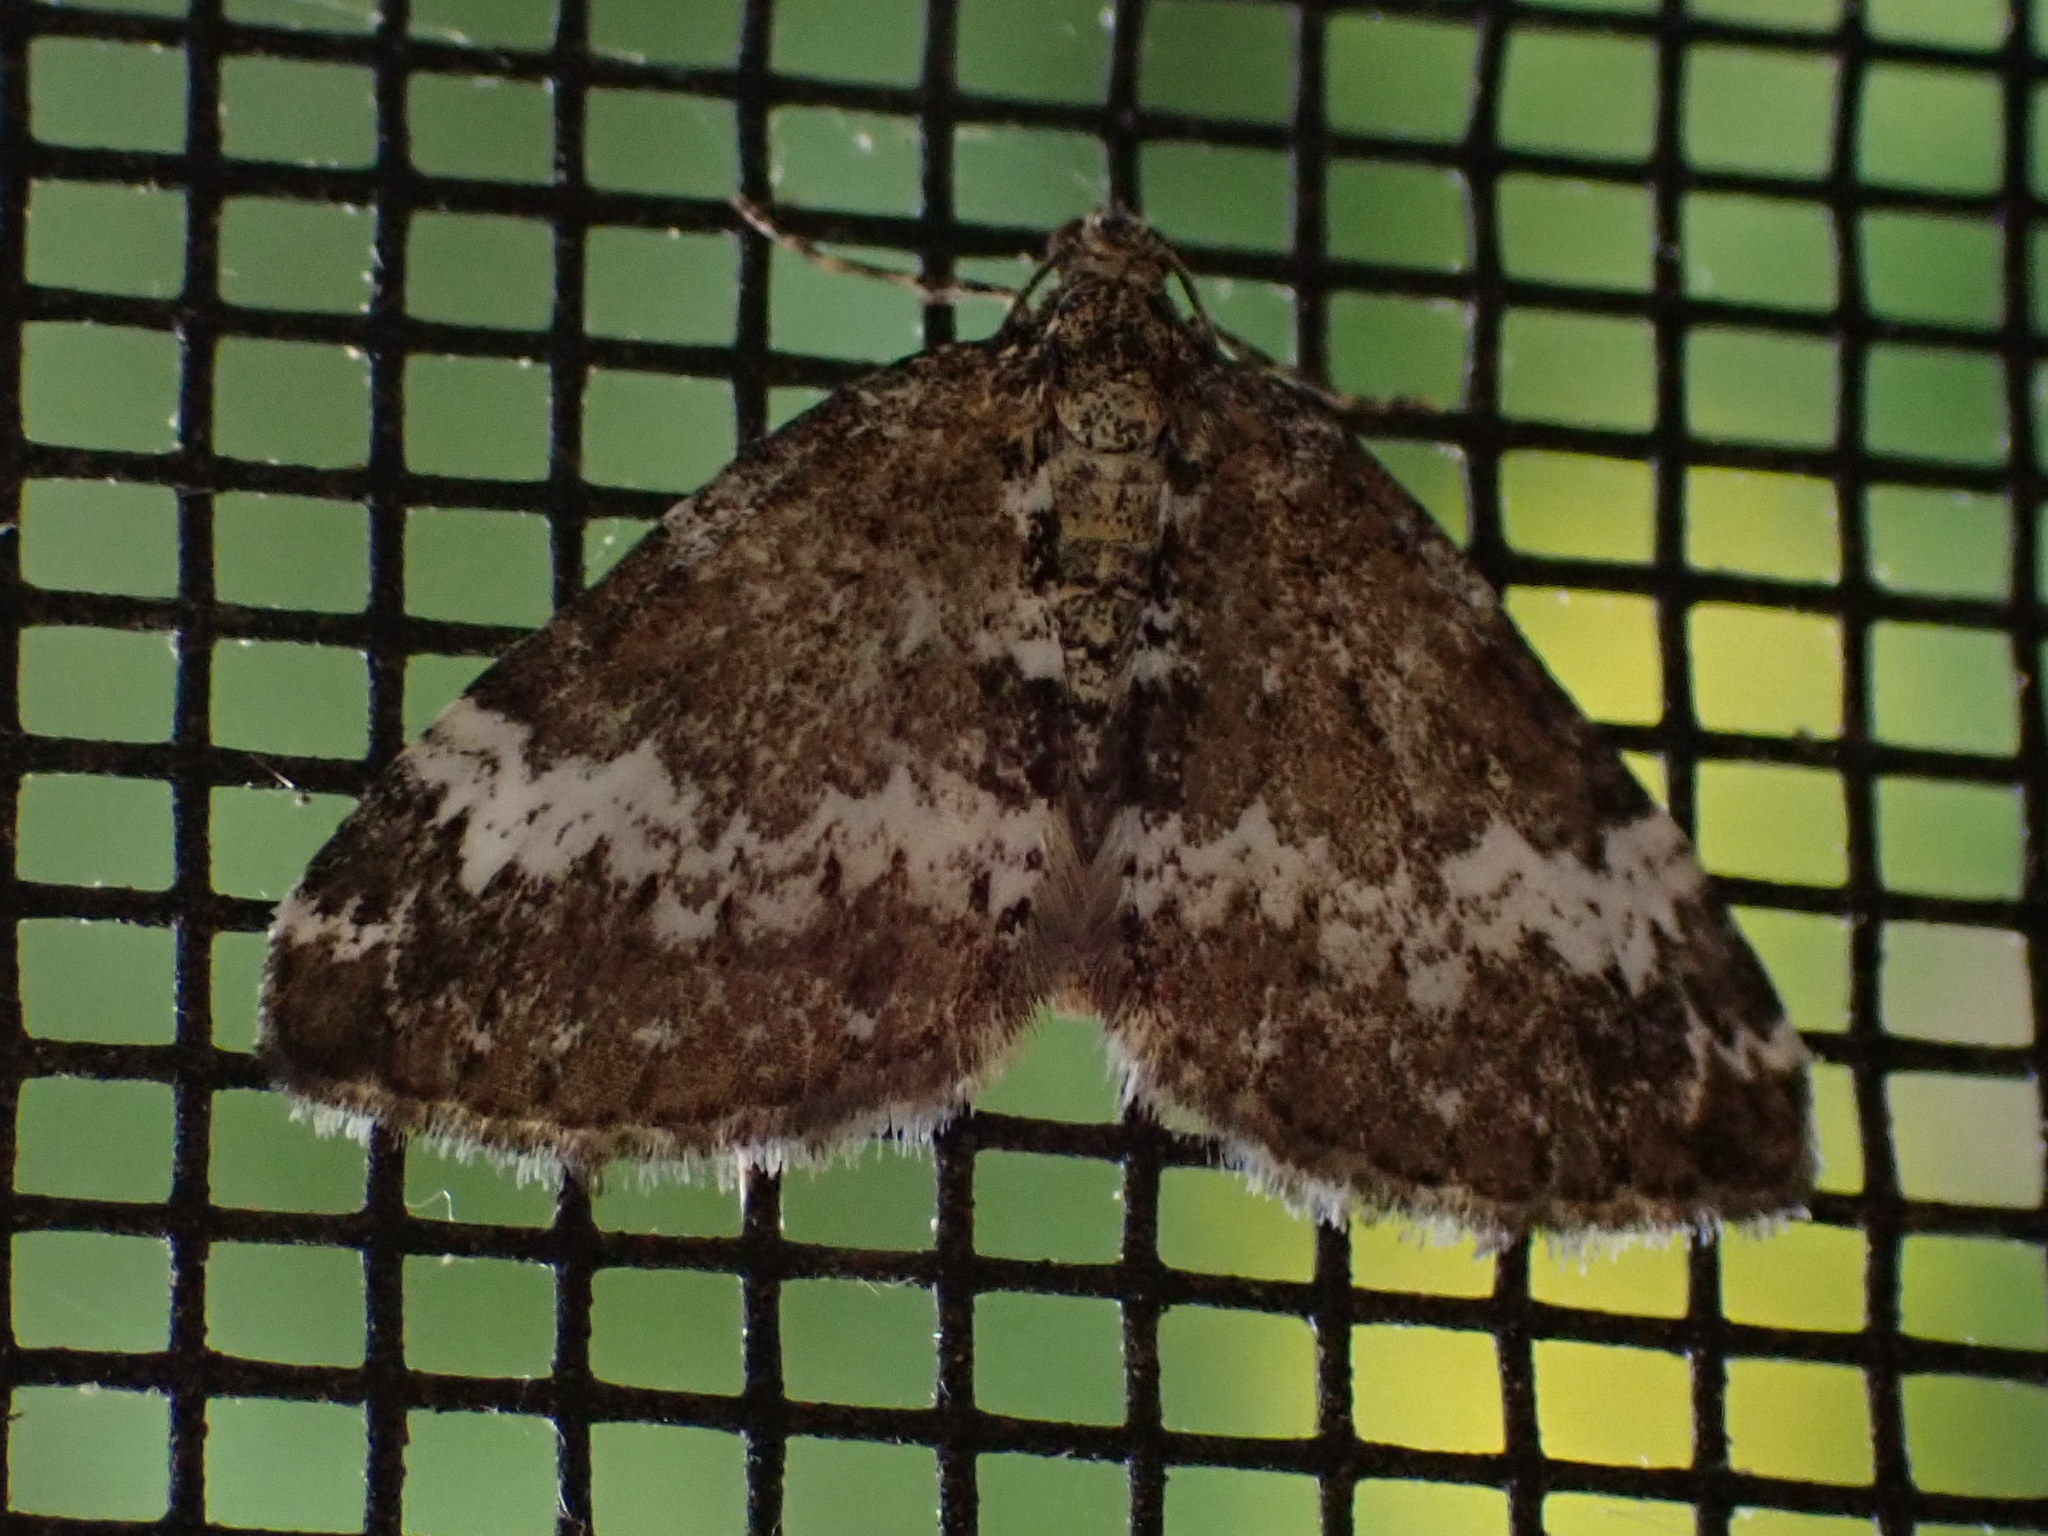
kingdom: Animalia
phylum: Arthropoda
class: Insecta
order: Lepidoptera
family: Geometridae
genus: Perizoma
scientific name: Perizoma alchemillata
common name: Small rivulet
